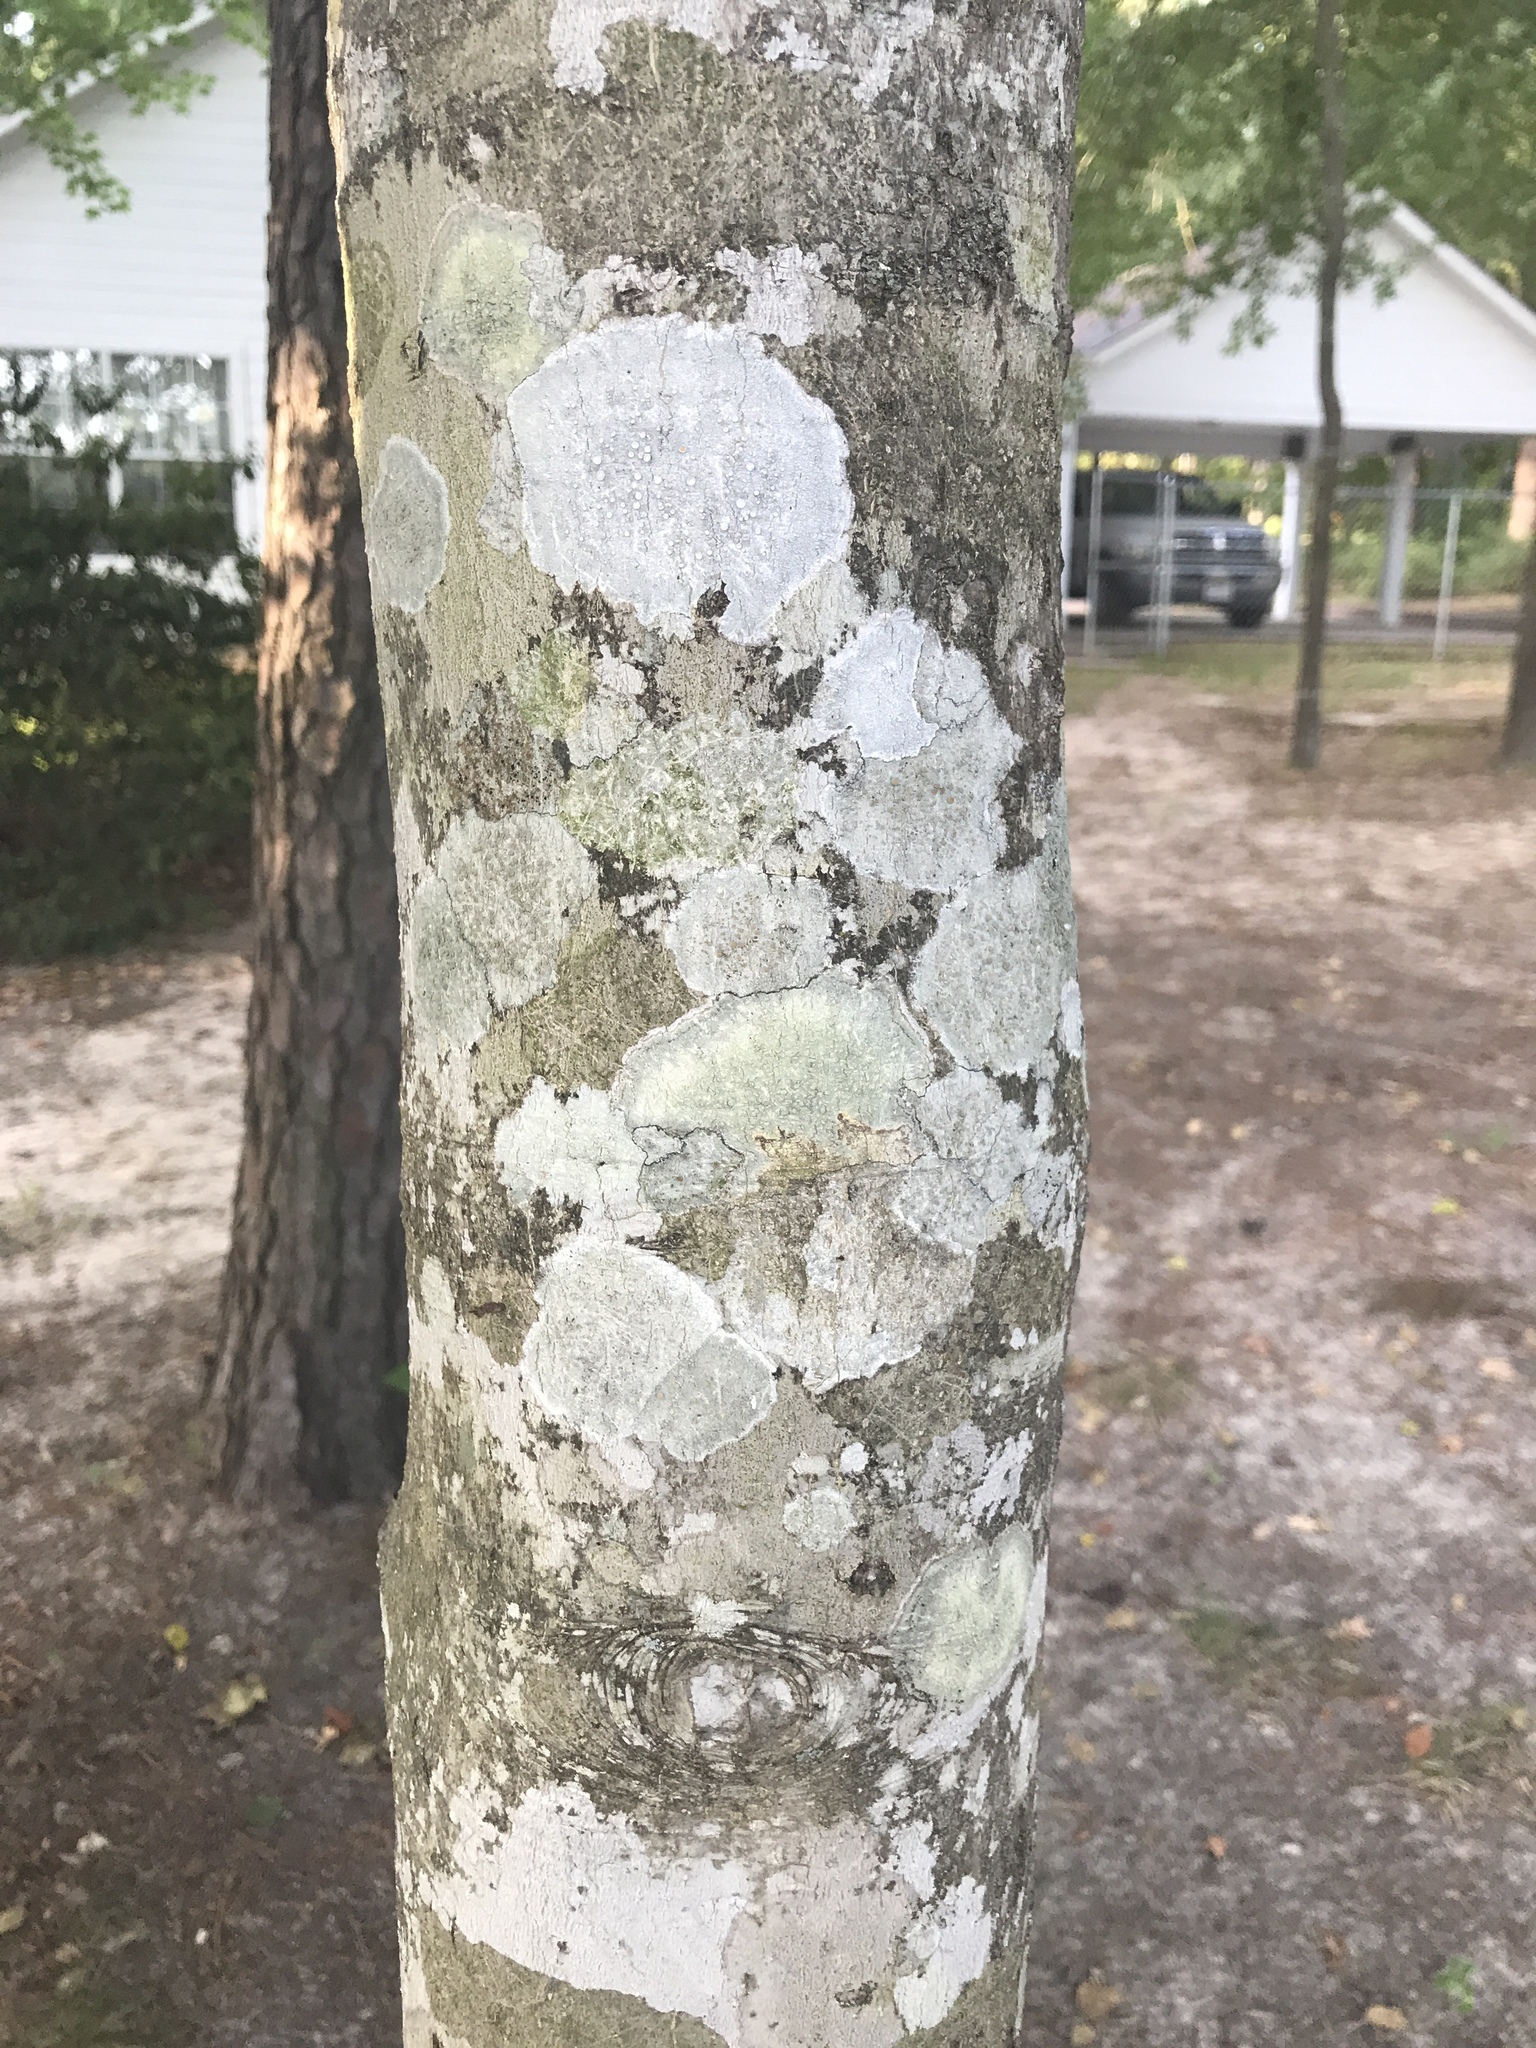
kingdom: Plantae
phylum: Tracheophyta
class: Magnoliopsida
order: Aquifoliales
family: Aquifoliaceae
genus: Ilex
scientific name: Ilex opaca
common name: American holly
